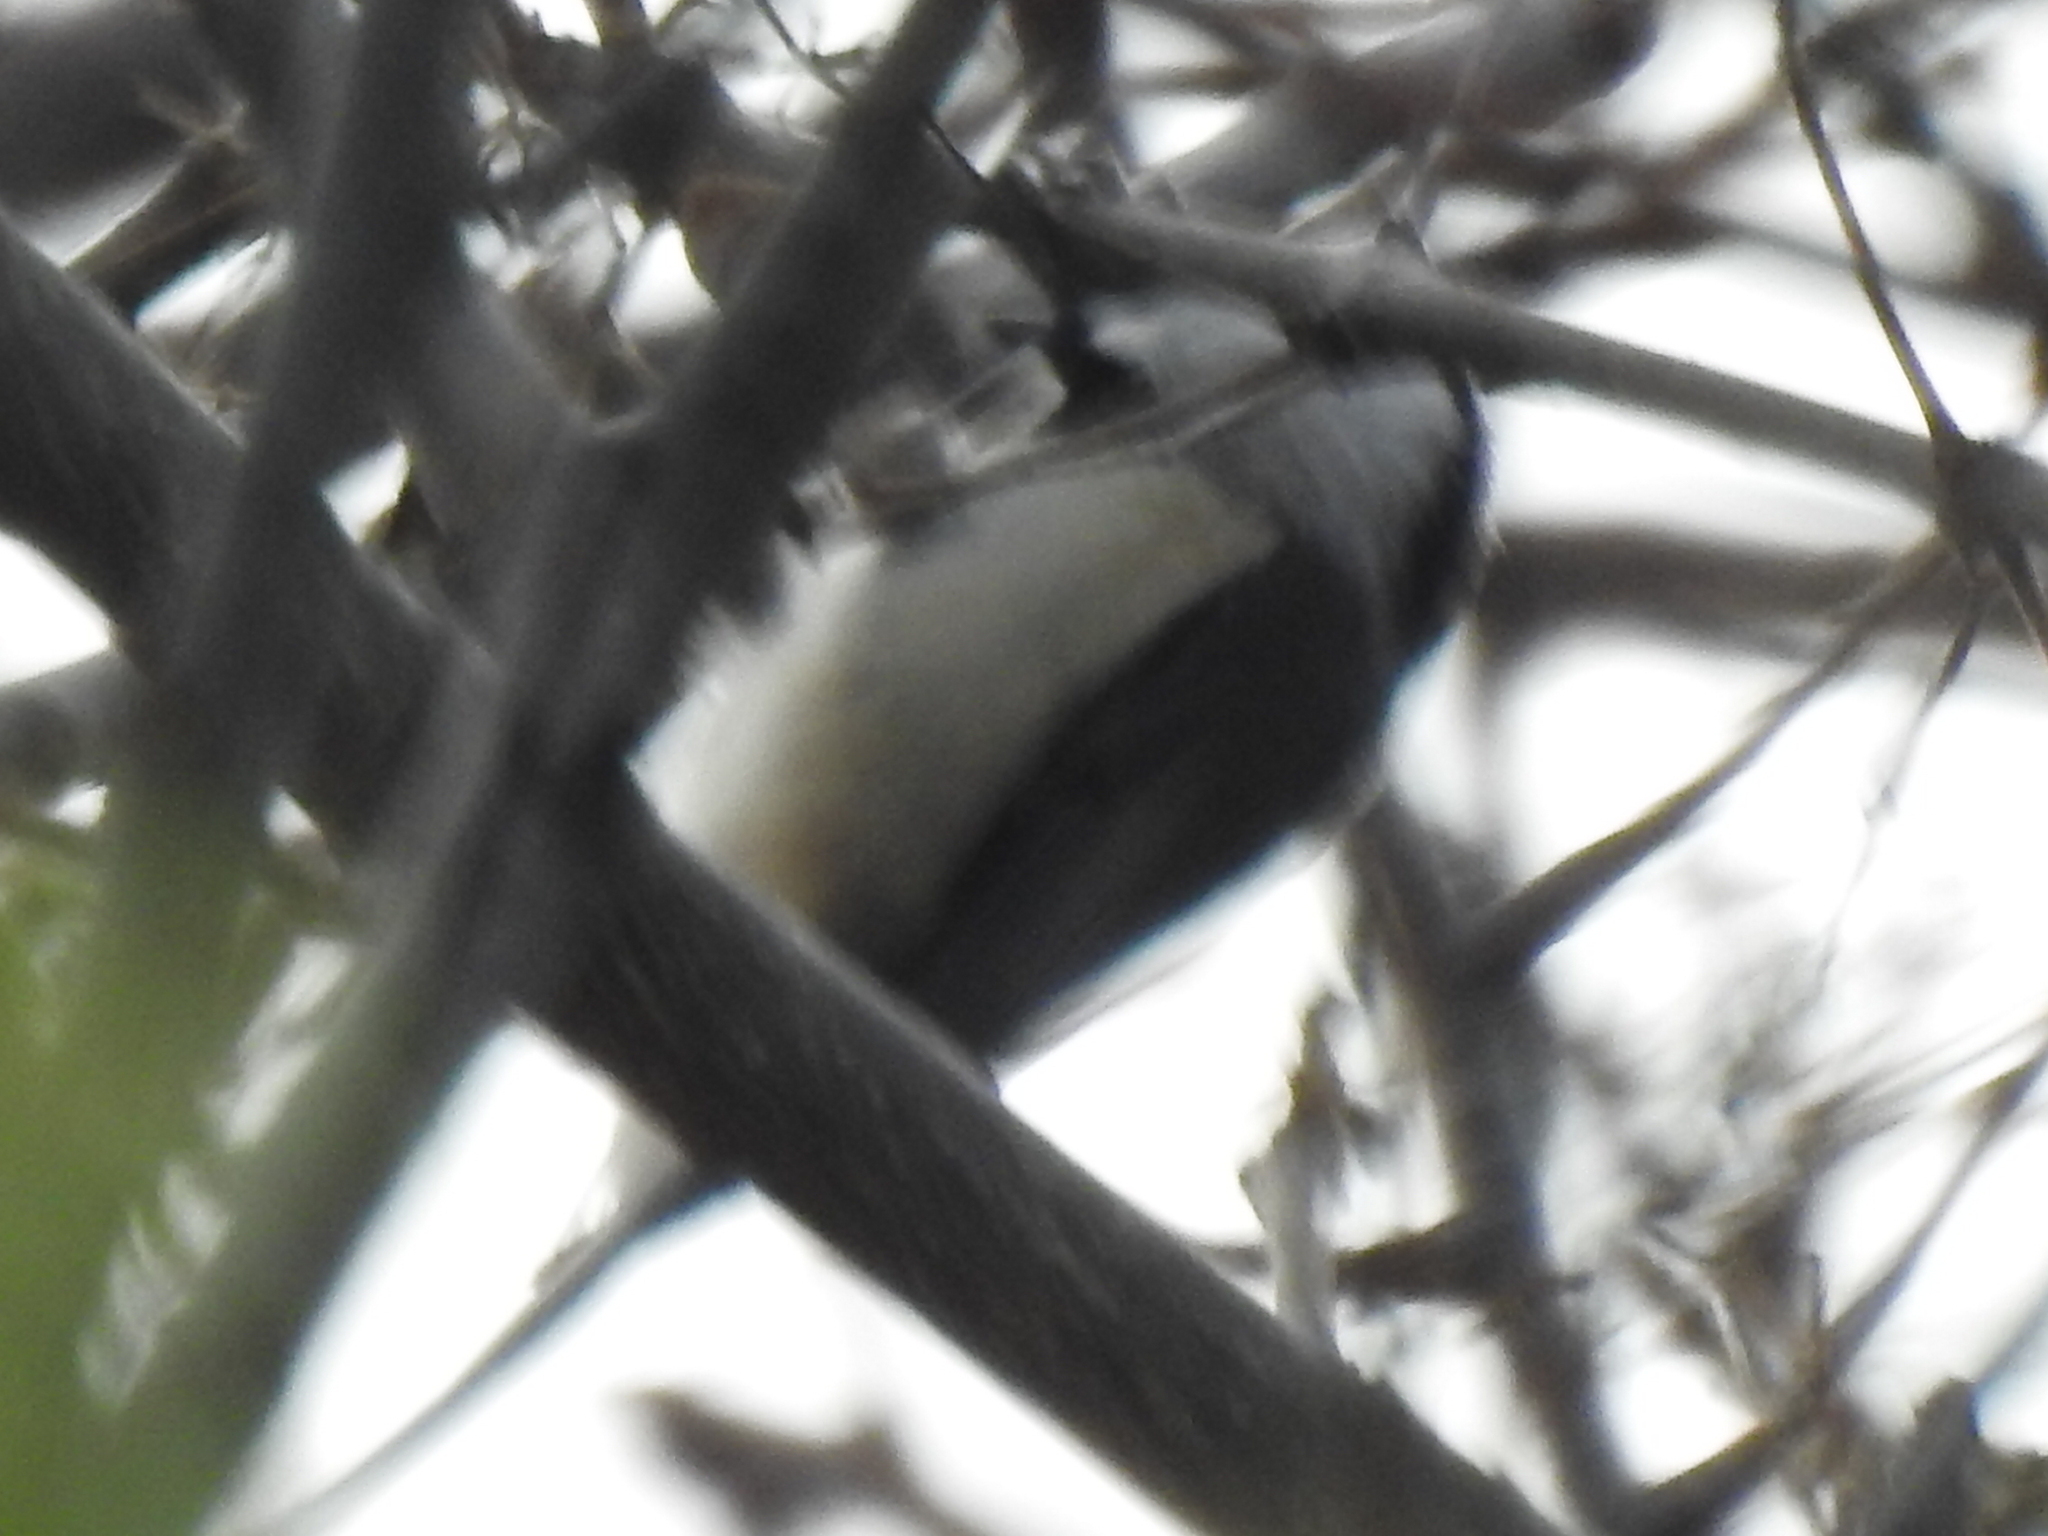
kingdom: Animalia
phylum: Chordata
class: Aves
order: Passeriformes
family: Paridae
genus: Poecile
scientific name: Poecile carolinensis
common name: Carolina chickadee
